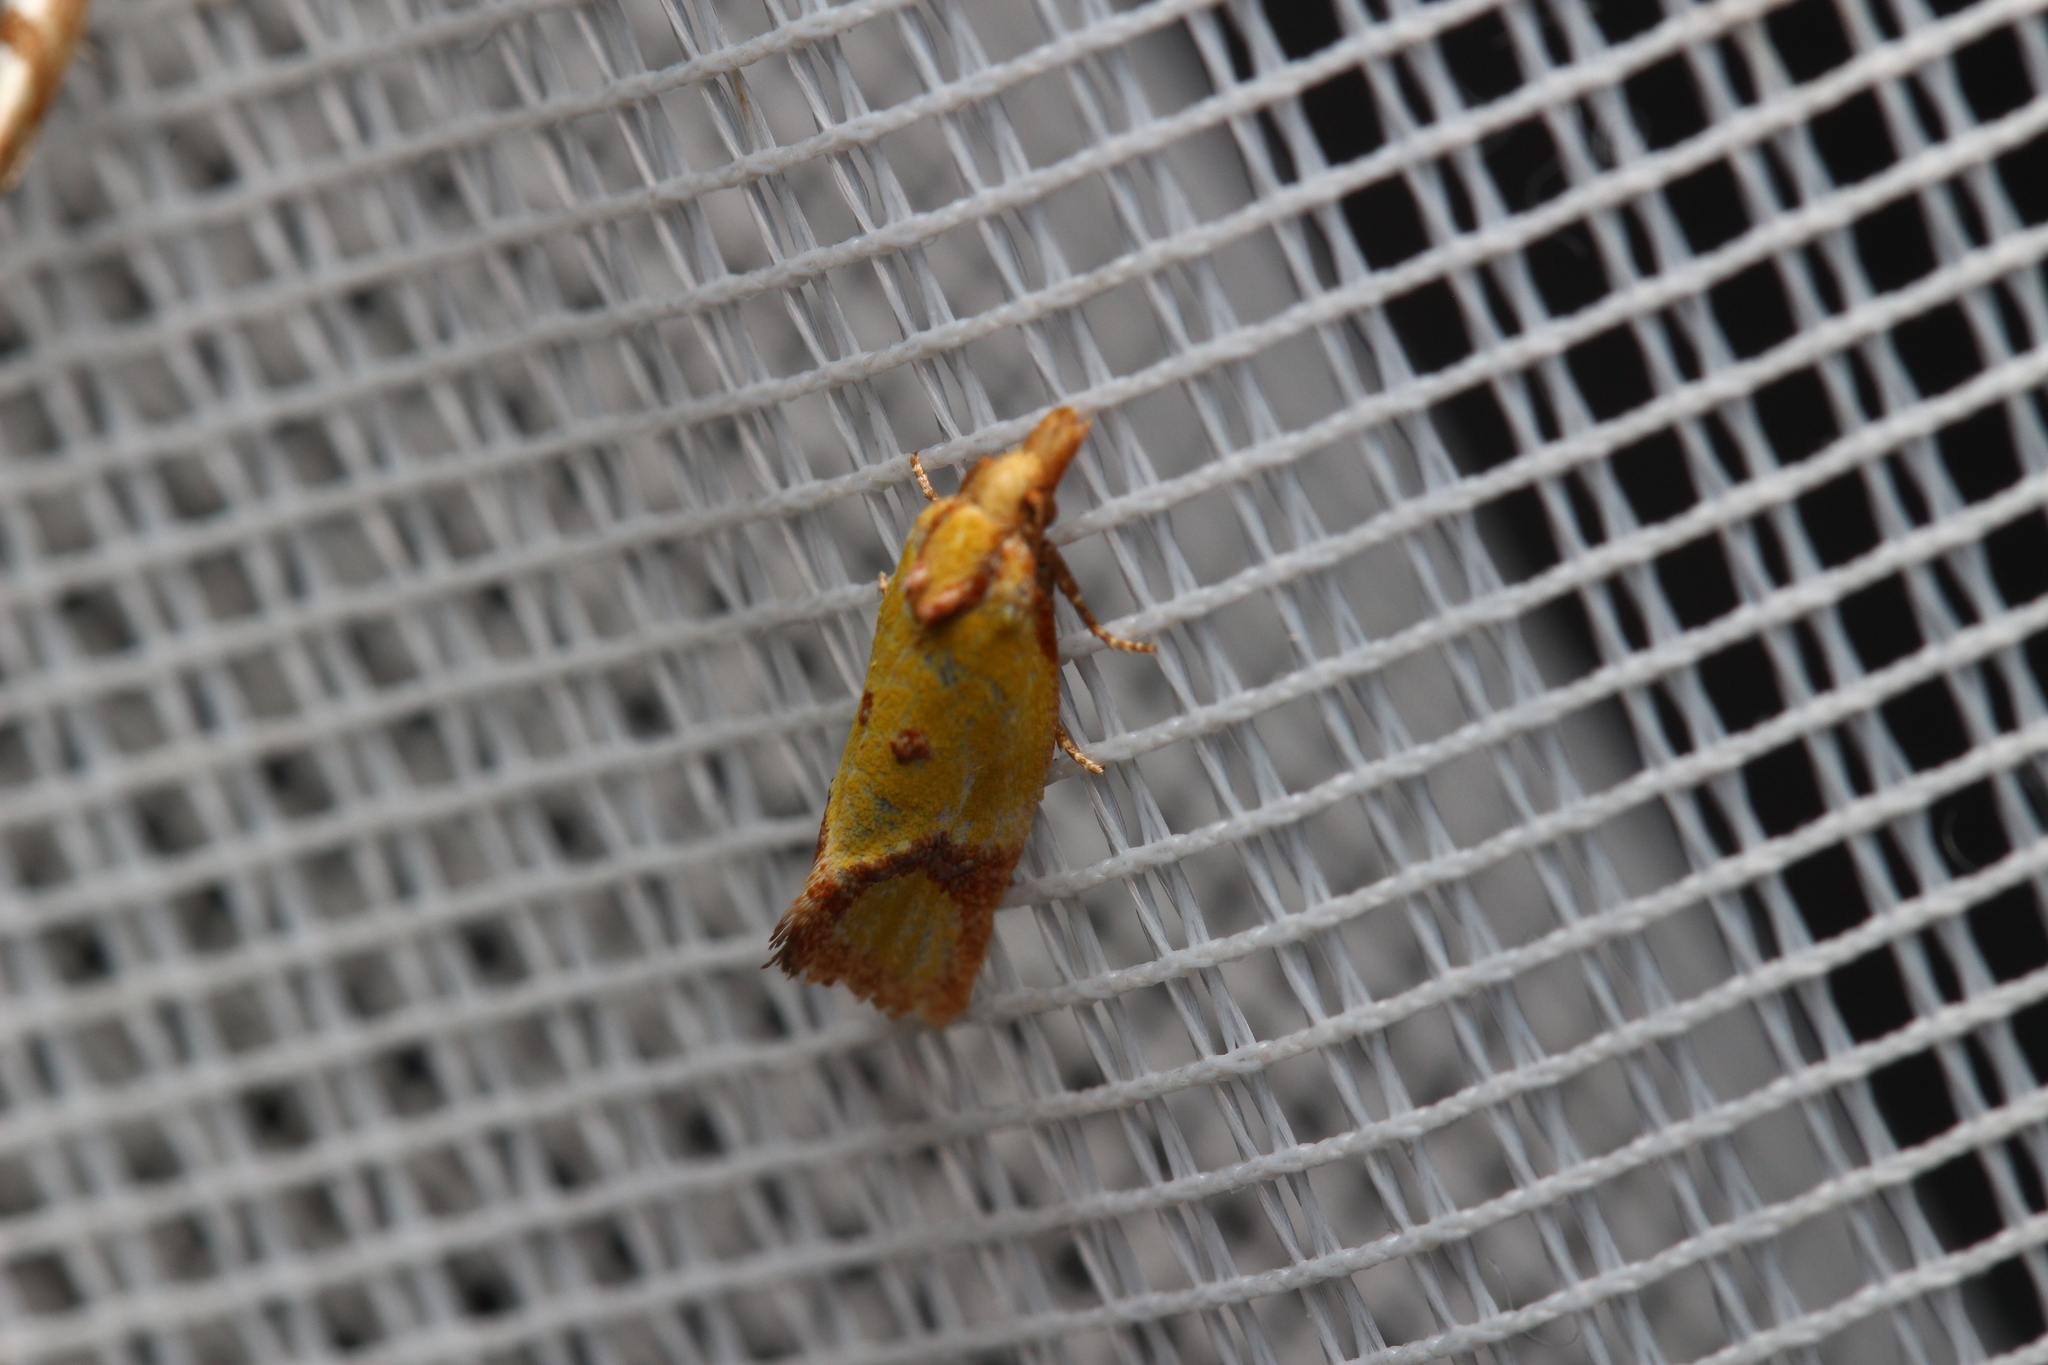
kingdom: Animalia
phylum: Arthropoda
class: Insecta
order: Lepidoptera
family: Tortricidae
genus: Agapeta
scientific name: Agapeta zoegana
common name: Sulfur knapweed root moth
